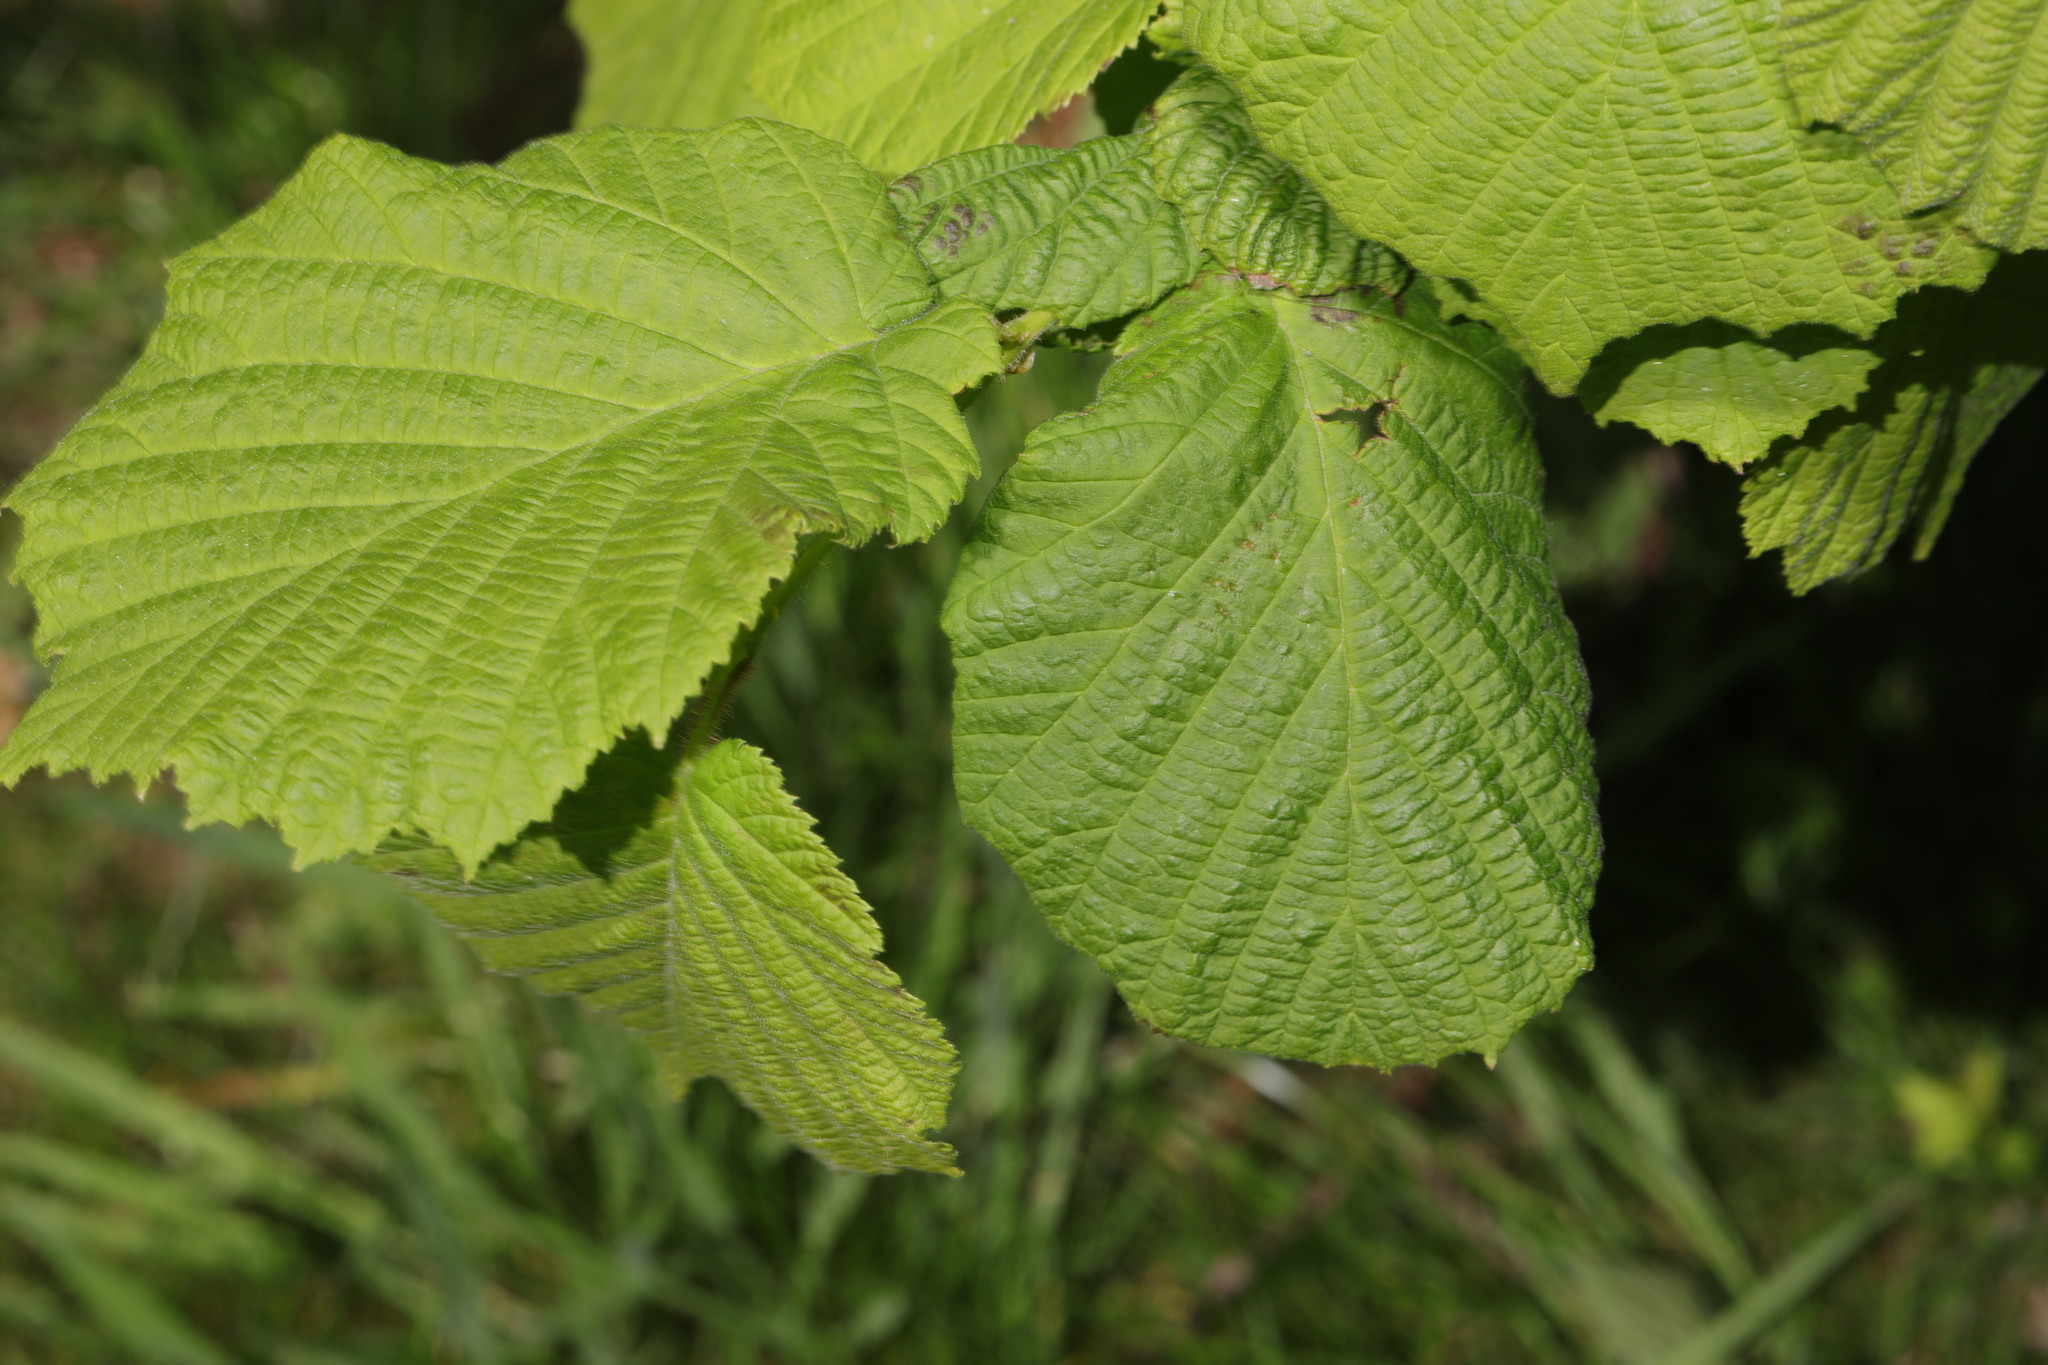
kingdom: Plantae
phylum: Tracheophyta
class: Magnoliopsida
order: Fagales
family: Betulaceae
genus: Corylus
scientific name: Corylus avellana
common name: European hazel
